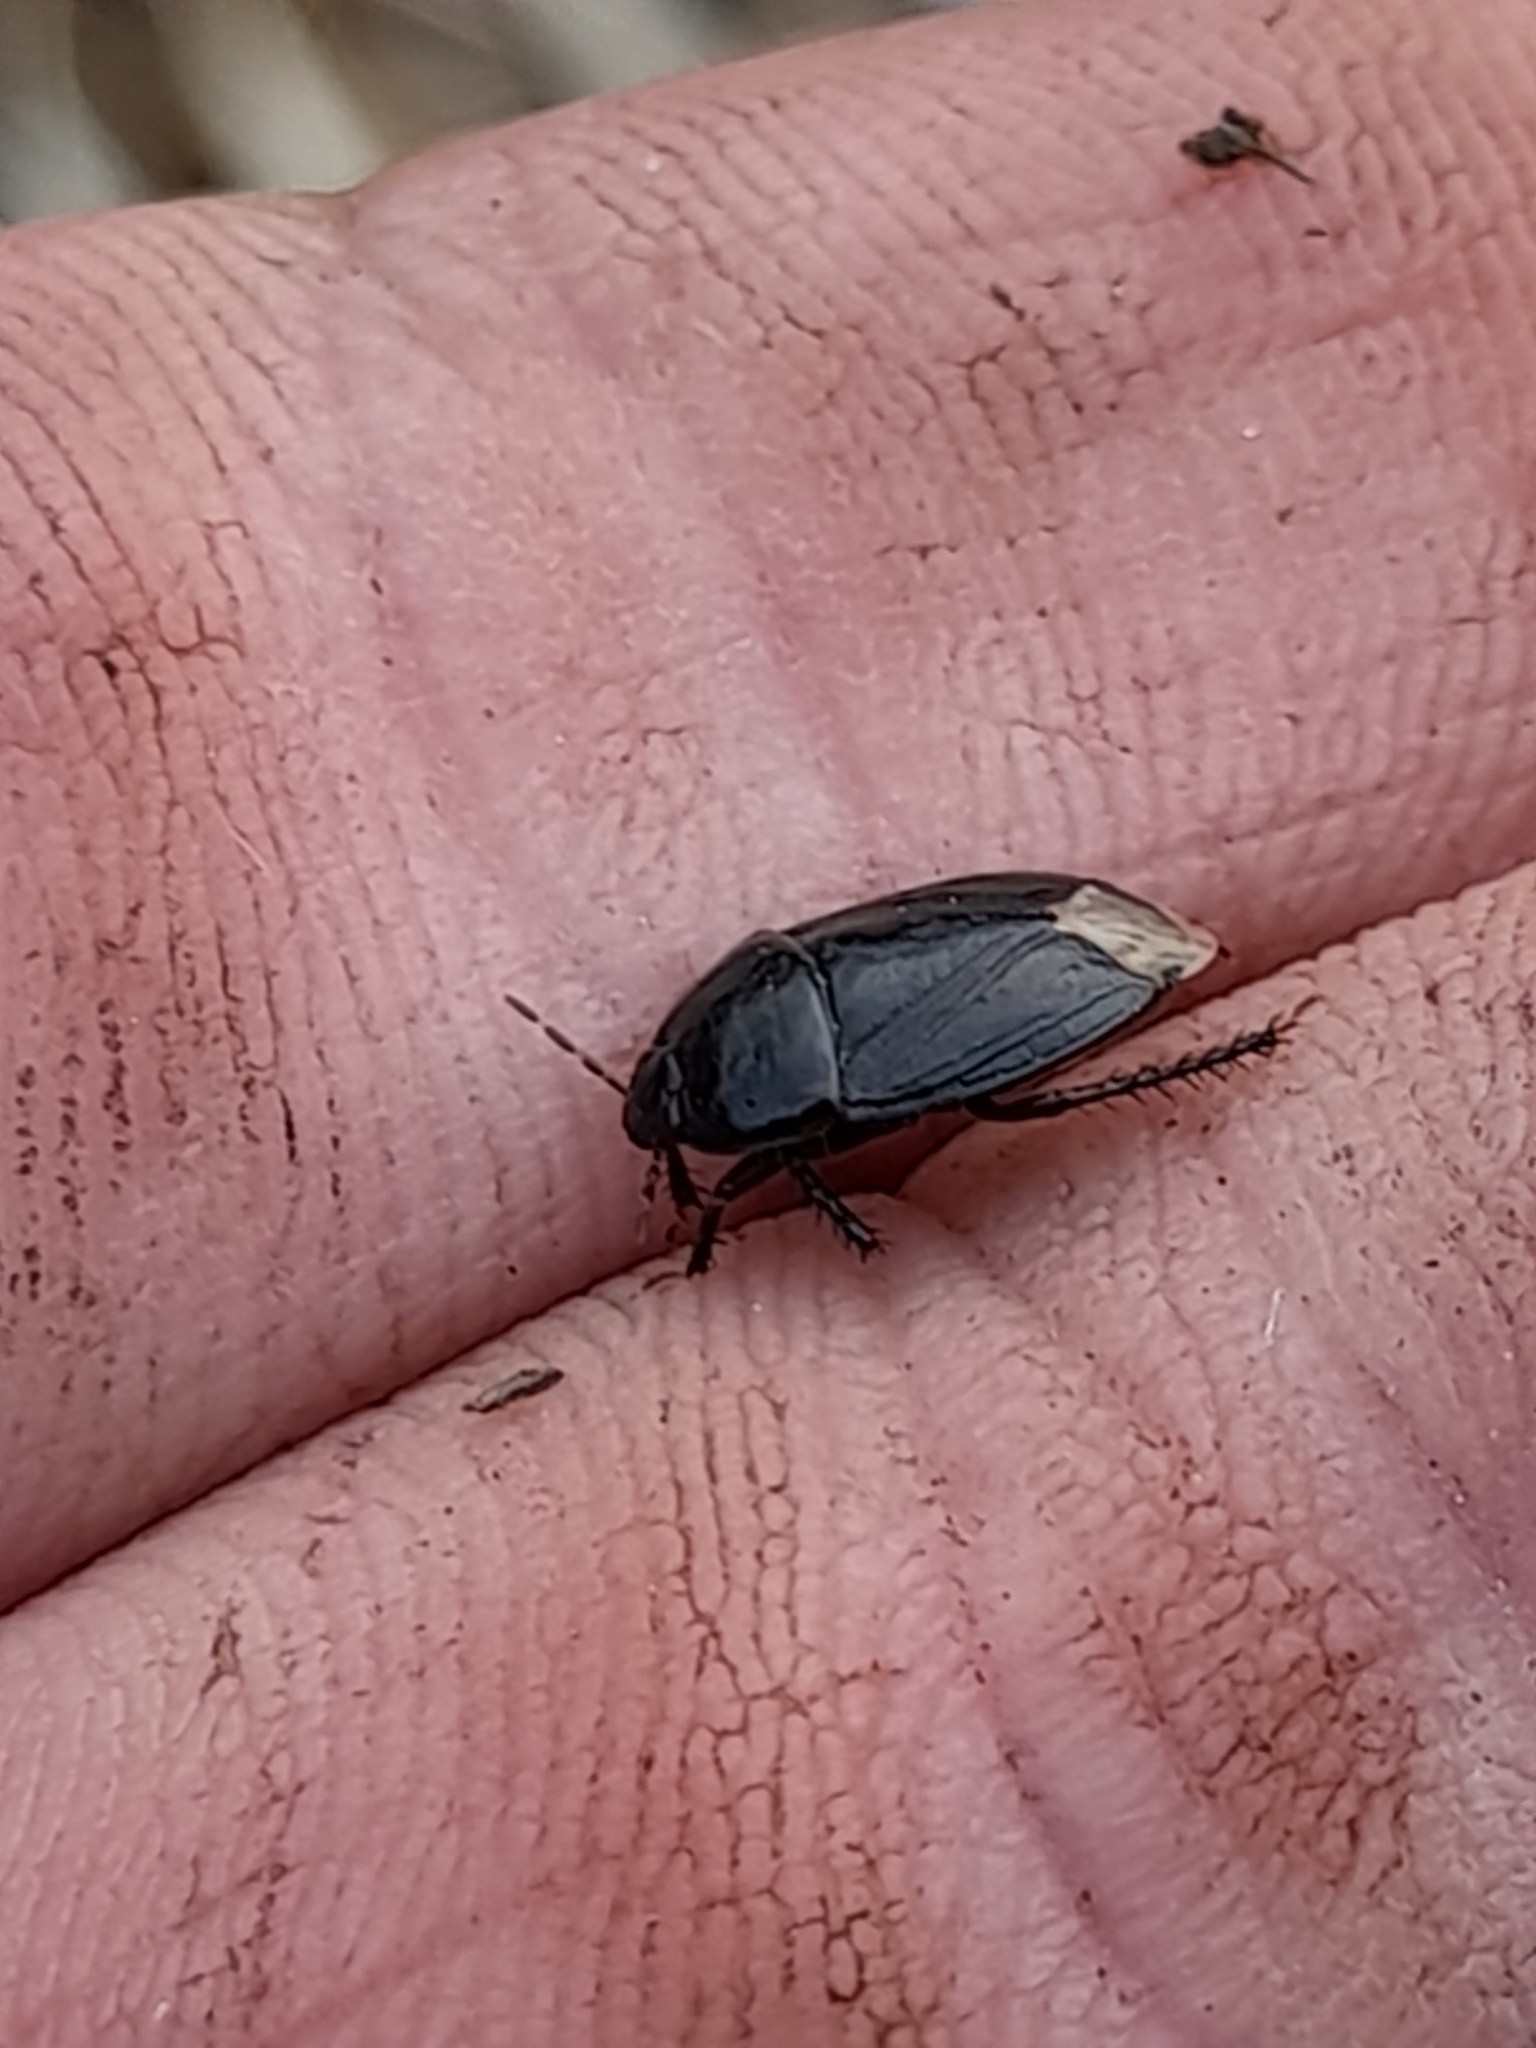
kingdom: Animalia
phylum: Arthropoda
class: Insecta
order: Hemiptera
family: Cydnidae
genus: Macroscytus
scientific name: Macroscytus brunneus
